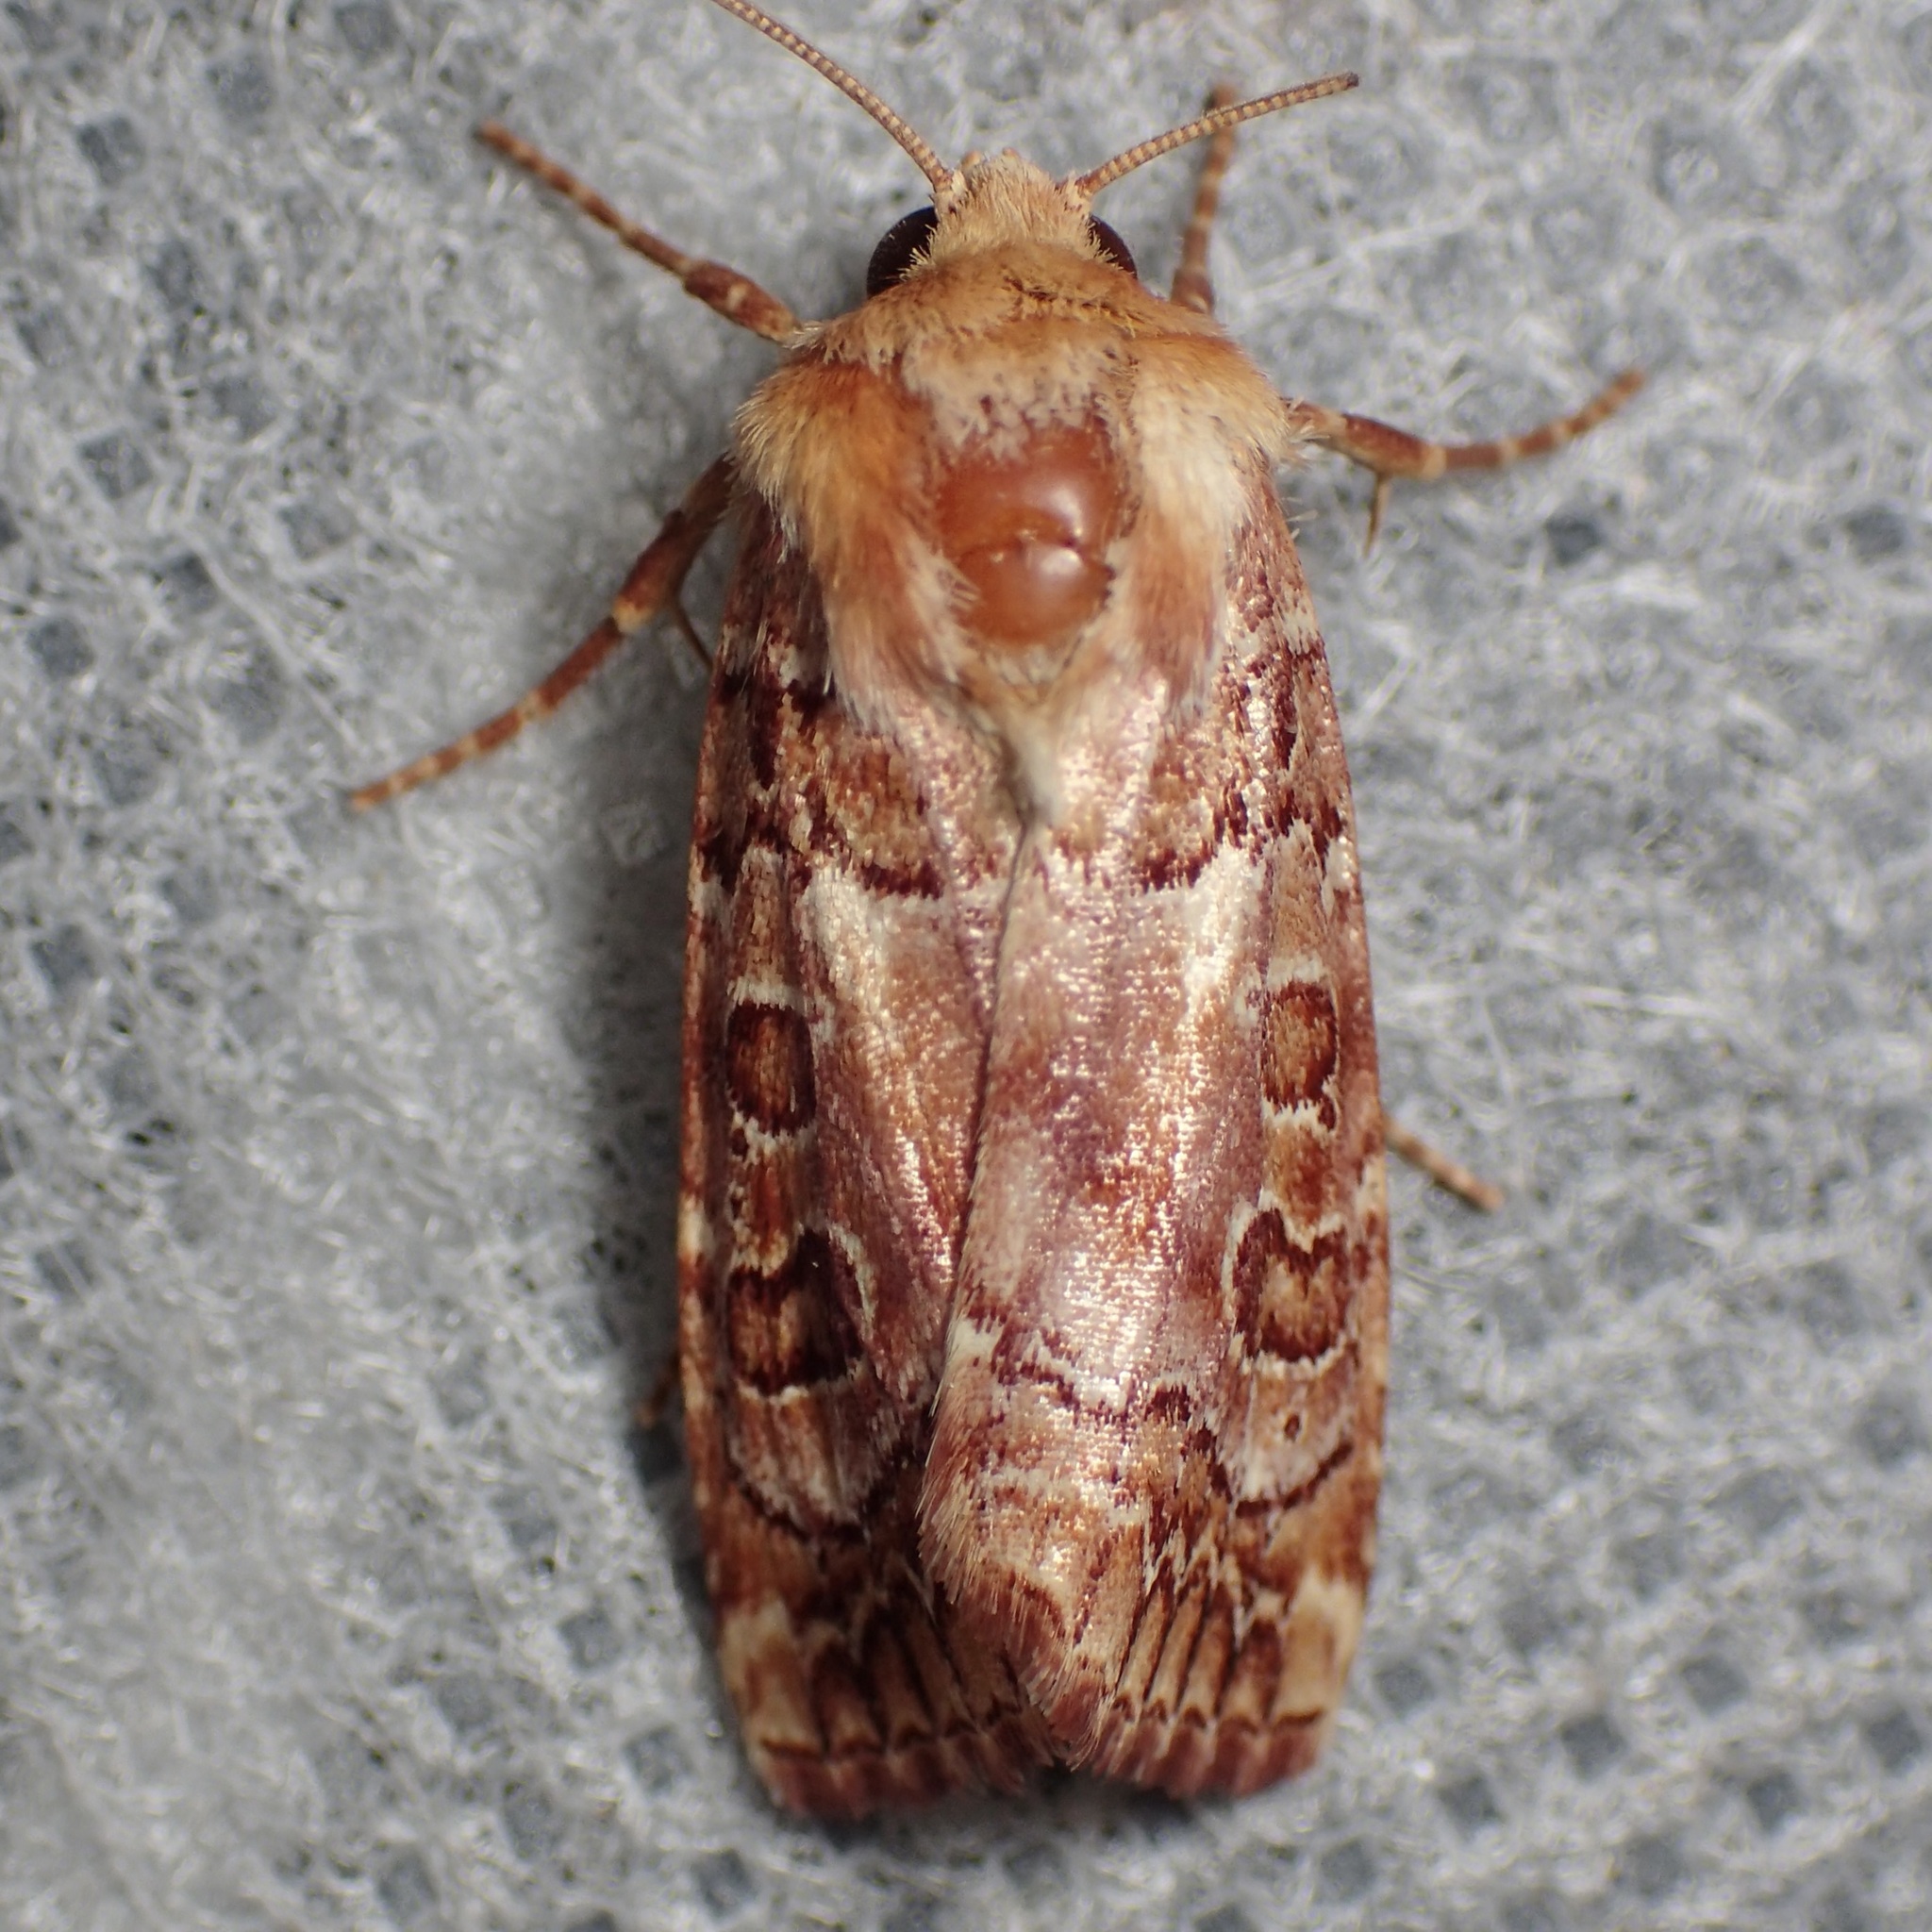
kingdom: Animalia
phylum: Arthropoda
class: Insecta
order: Lepidoptera
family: Noctuidae
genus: Eriopyga
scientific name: Eriopyga hueco
